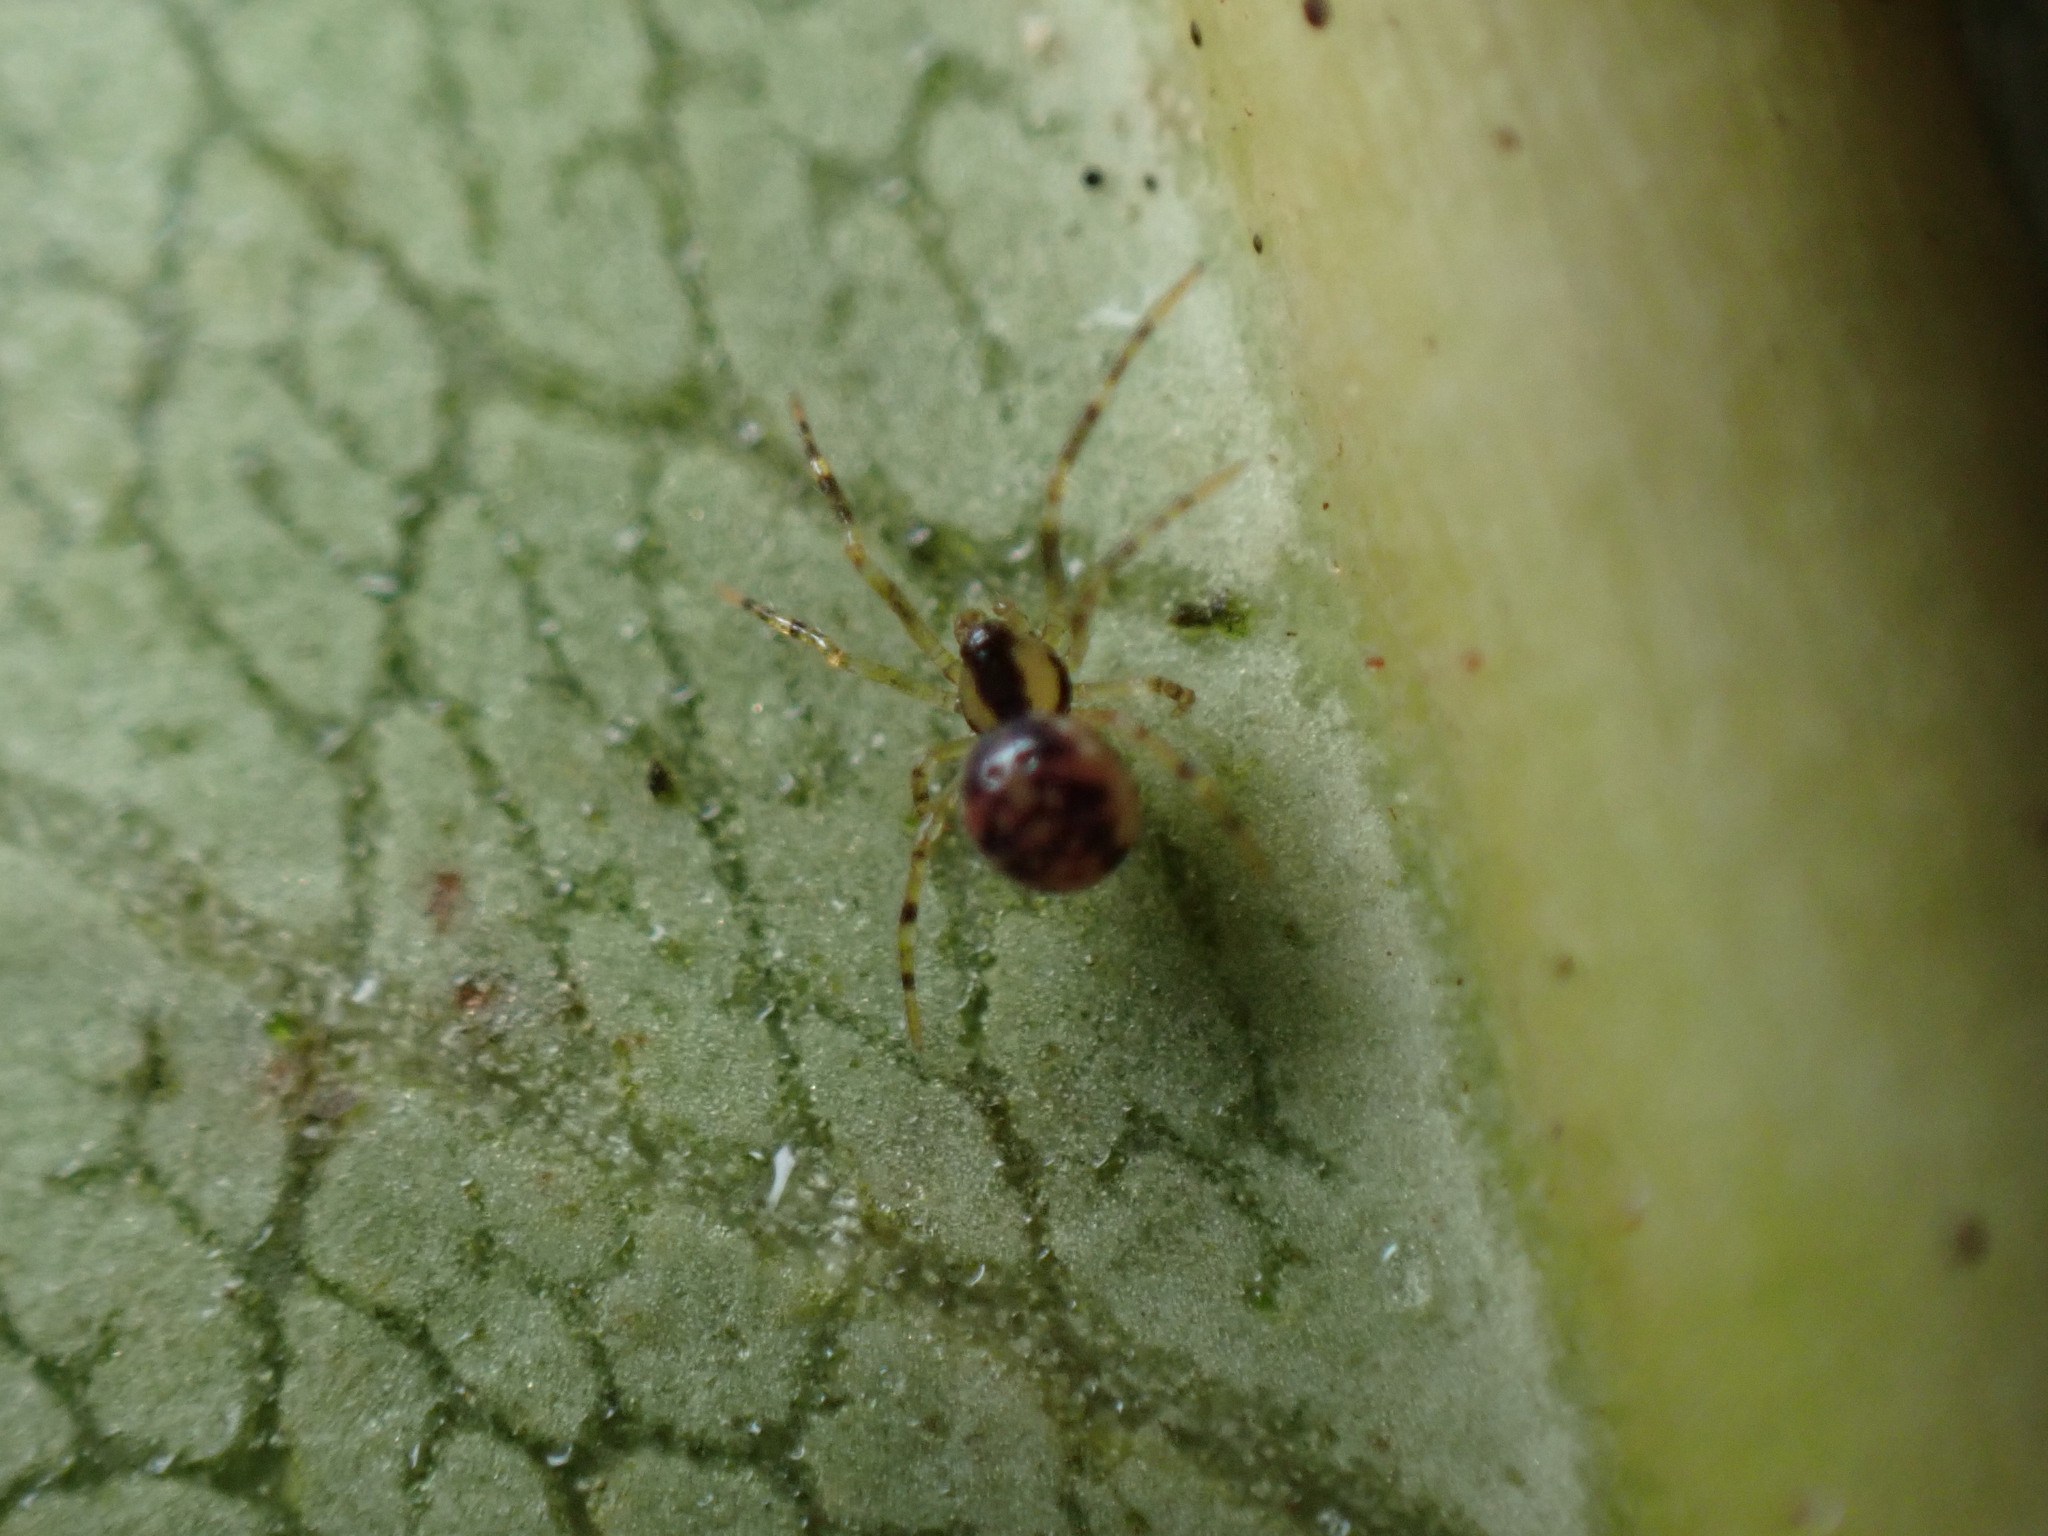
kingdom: Animalia
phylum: Arthropoda
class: Arachnida
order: Araneae
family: Theridiidae
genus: Rugathodes
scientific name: Rugathodes sexpunctatus
